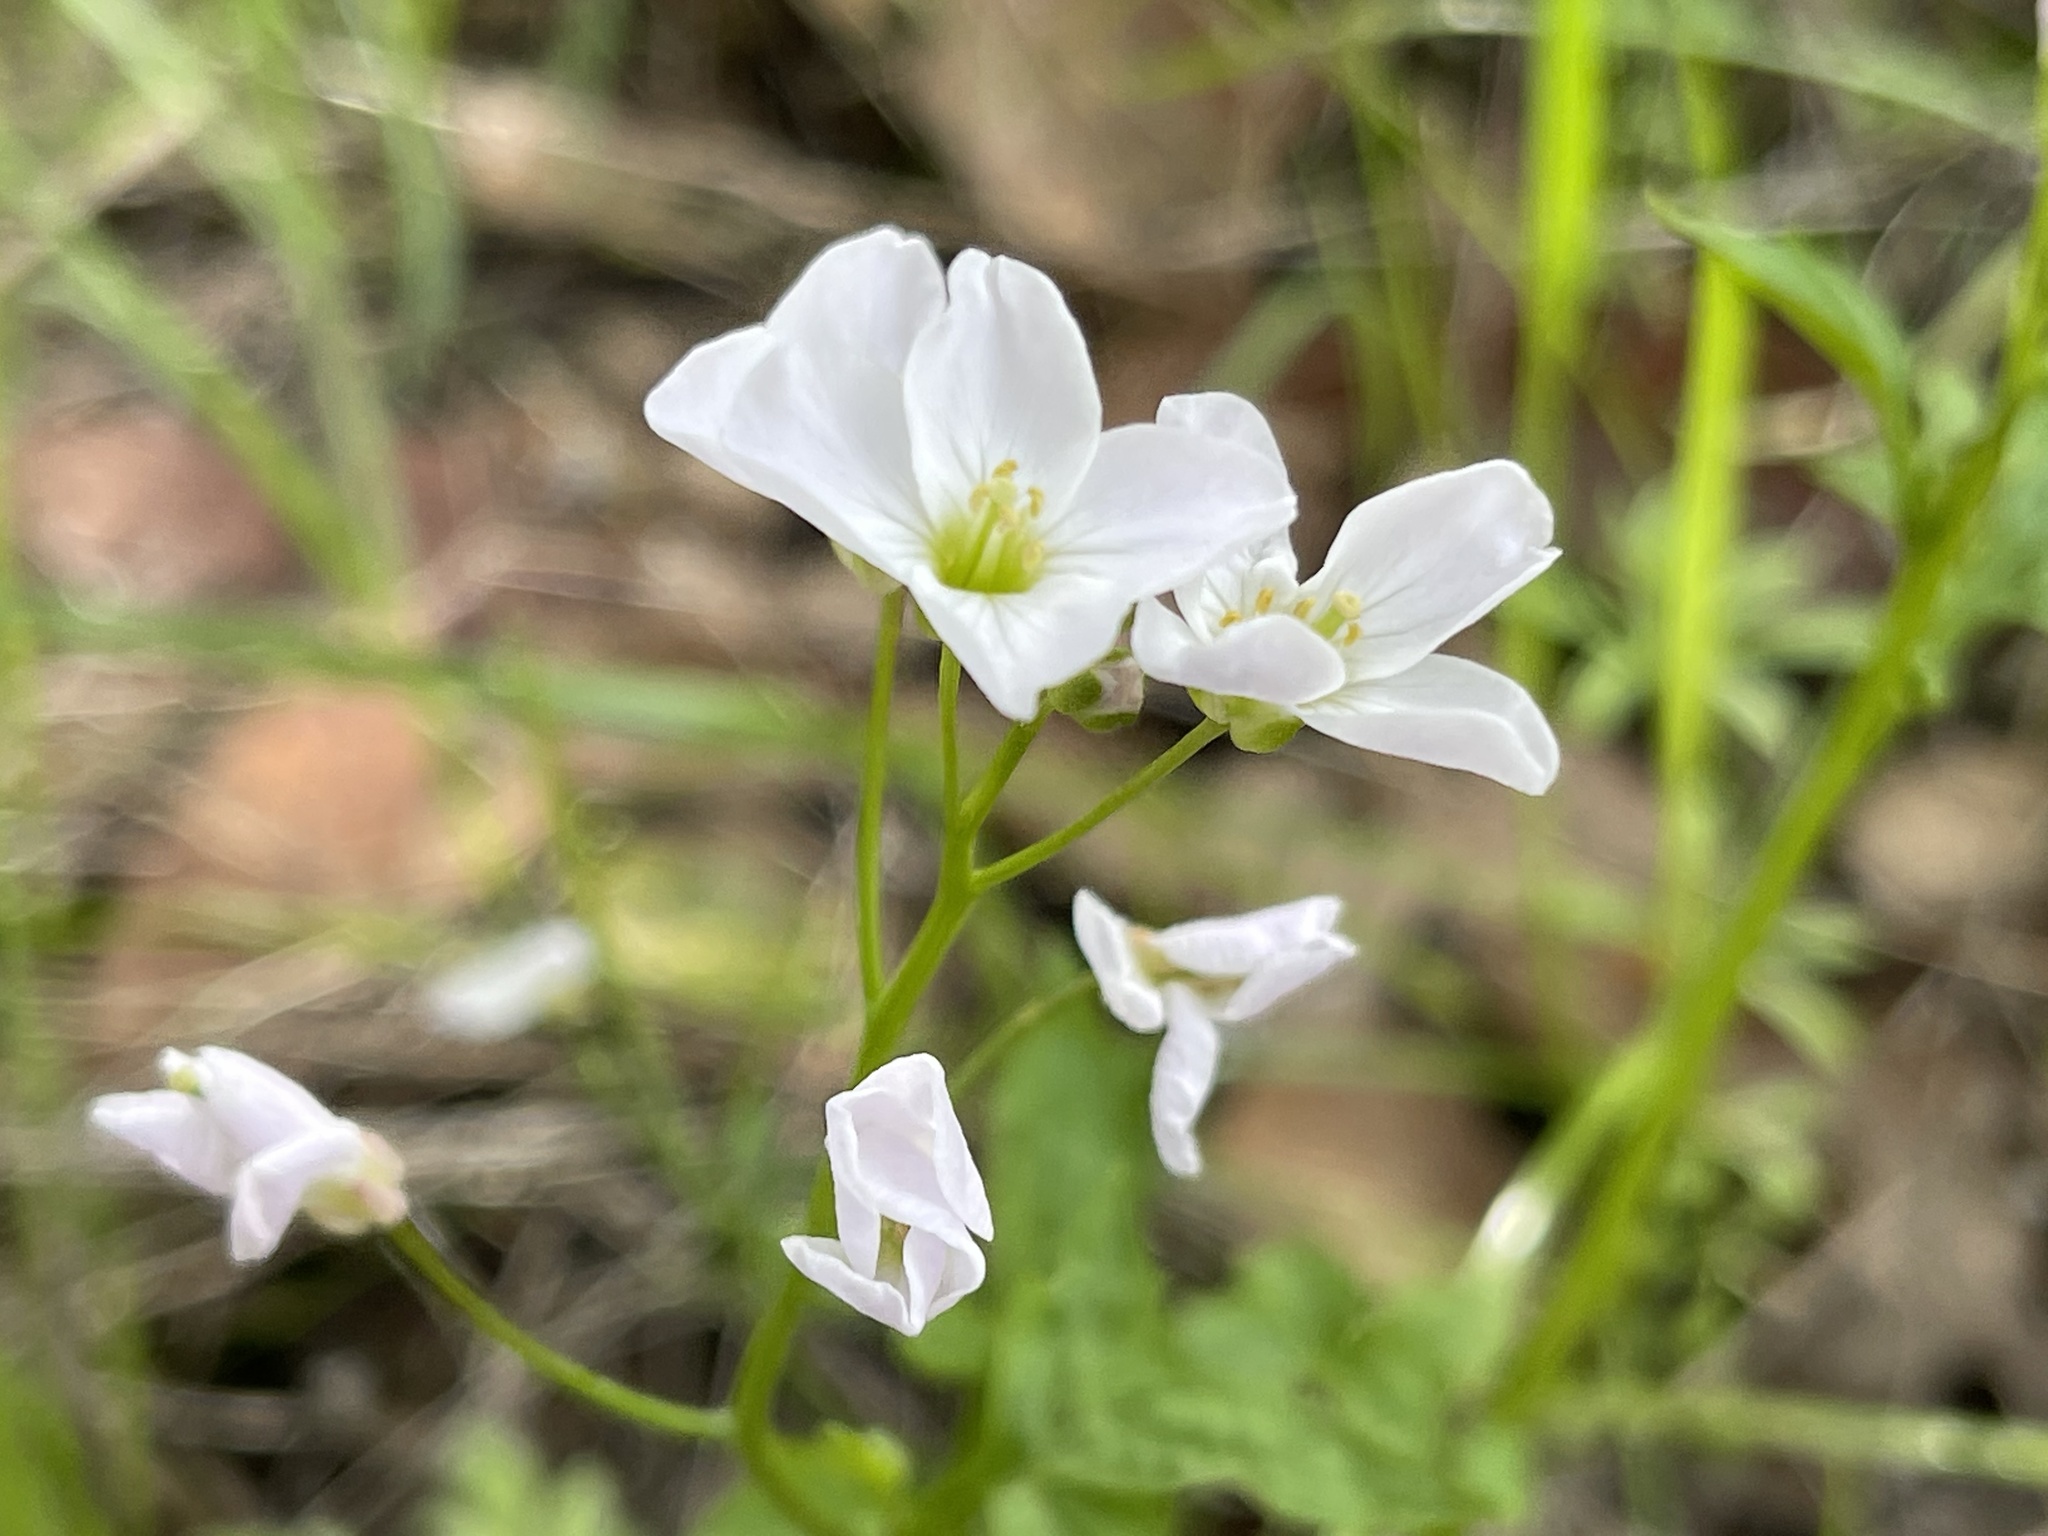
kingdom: Plantae
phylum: Tracheophyta
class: Magnoliopsida
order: Brassicales
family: Brassicaceae
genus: Cardamine
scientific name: Cardamine californica
